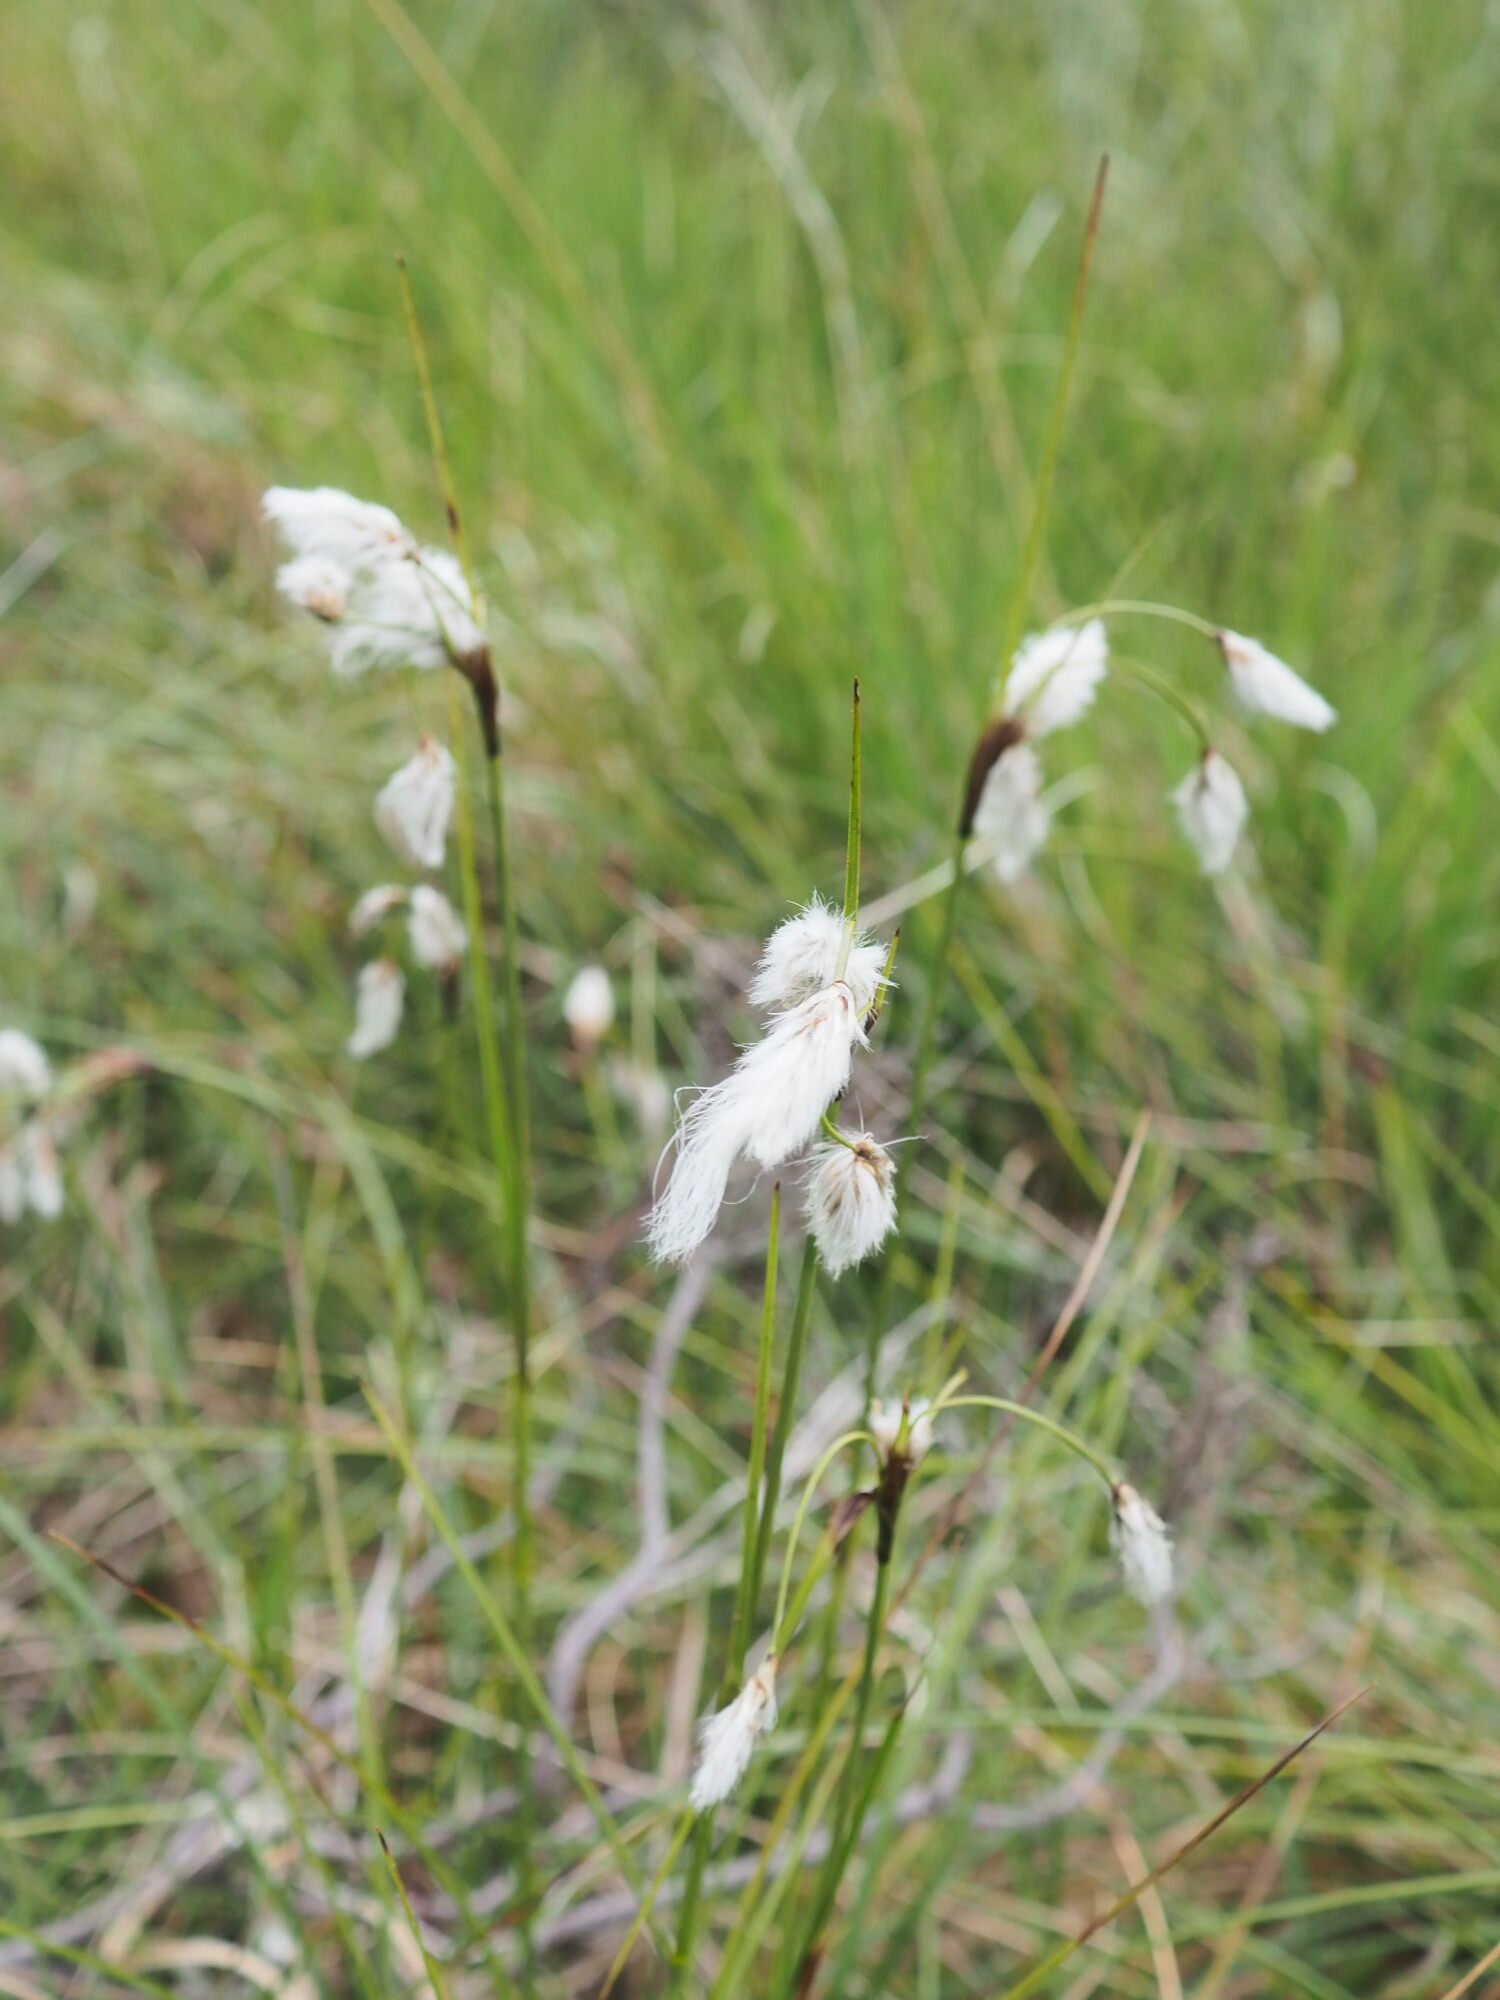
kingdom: Plantae
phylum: Tracheophyta
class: Liliopsida
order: Poales
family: Cyperaceae
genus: Eriophorum
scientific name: Eriophorum angustifolium
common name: Common cottongrass
